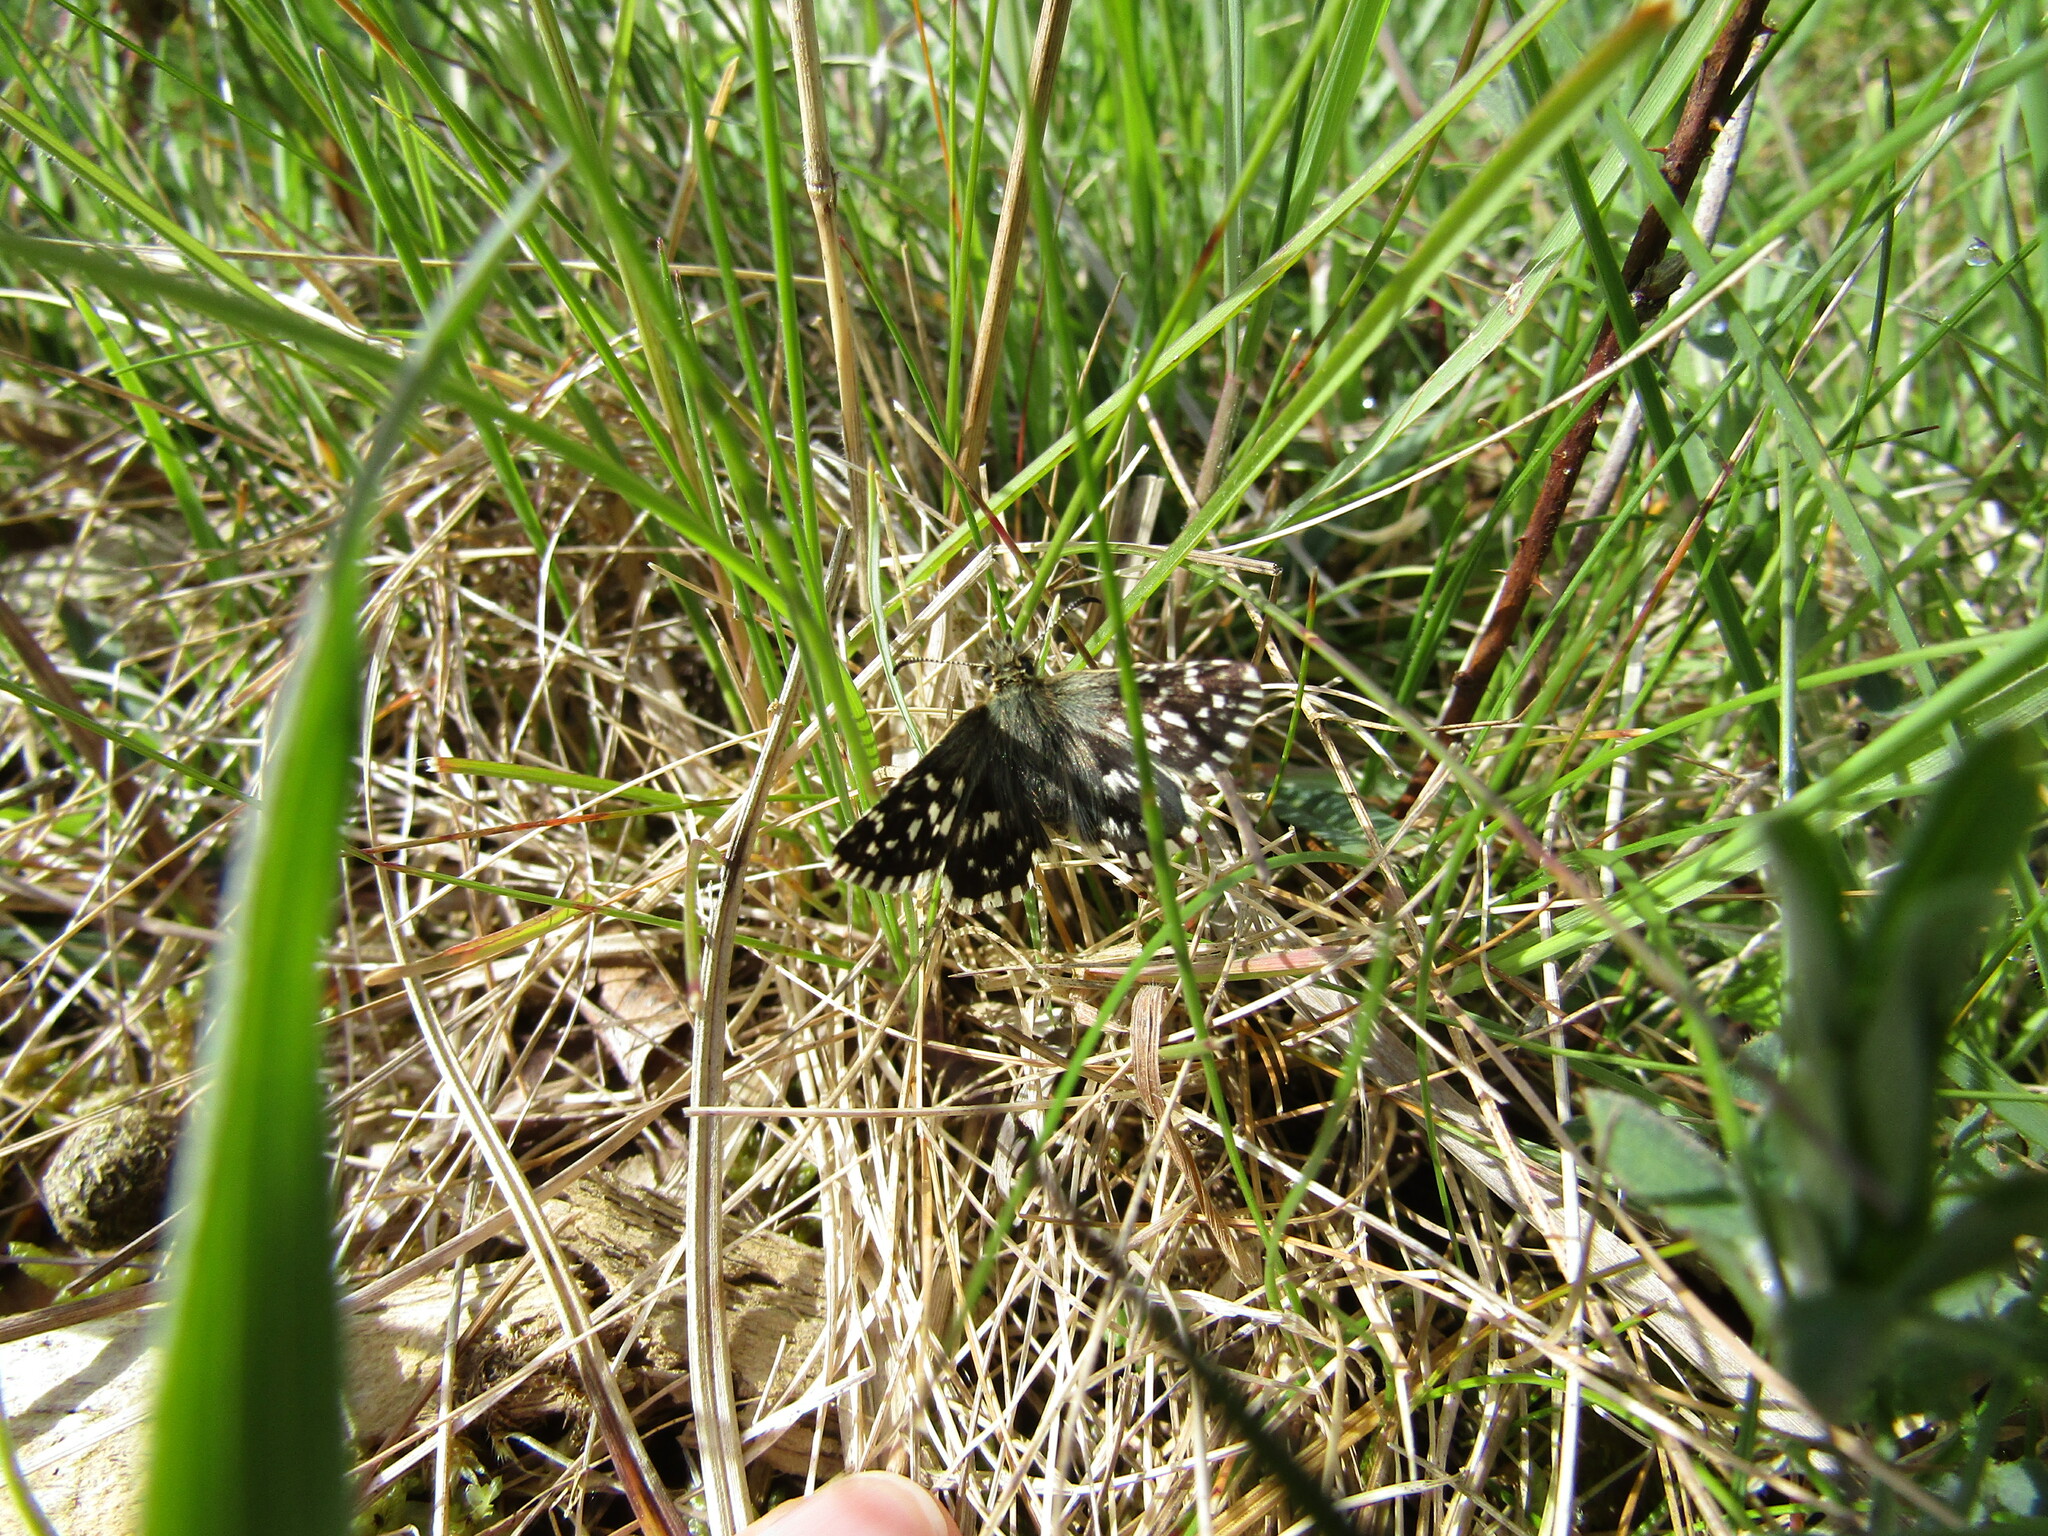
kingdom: Animalia
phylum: Arthropoda
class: Insecta
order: Lepidoptera
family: Hesperiidae
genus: Pyrgus
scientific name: Pyrgus malvae
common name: Grizzled skipper
